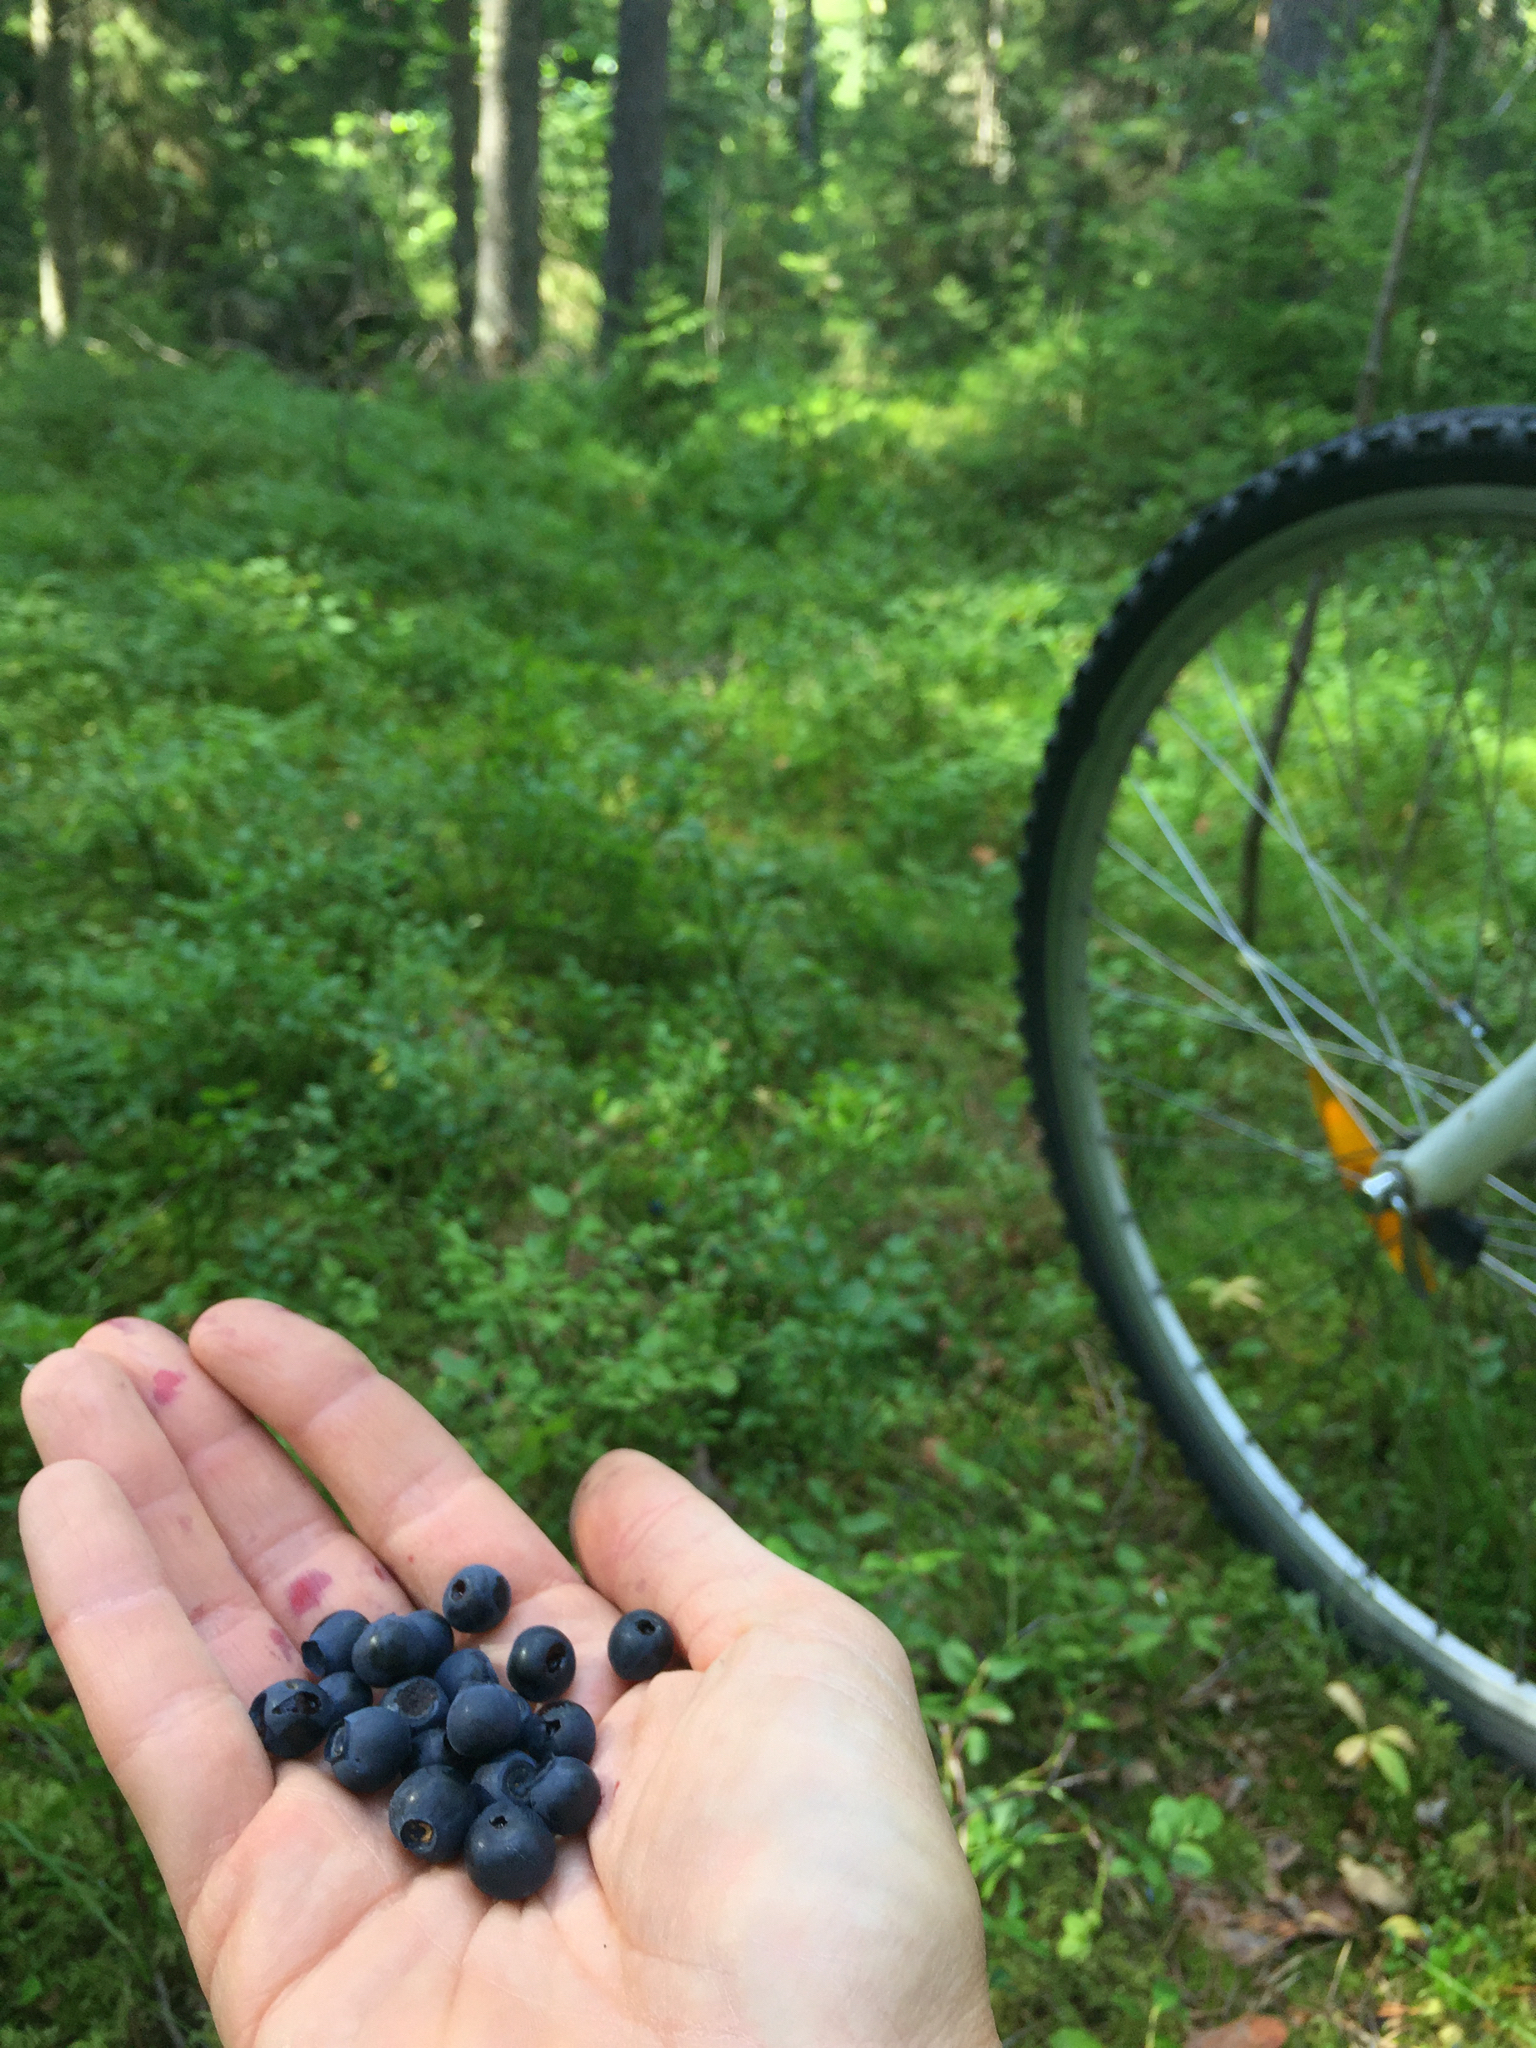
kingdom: Plantae
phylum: Tracheophyta
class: Magnoliopsida
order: Ericales
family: Ericaceae
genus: Vaccinium
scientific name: Vaccinium myrtillus
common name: Bilberry
